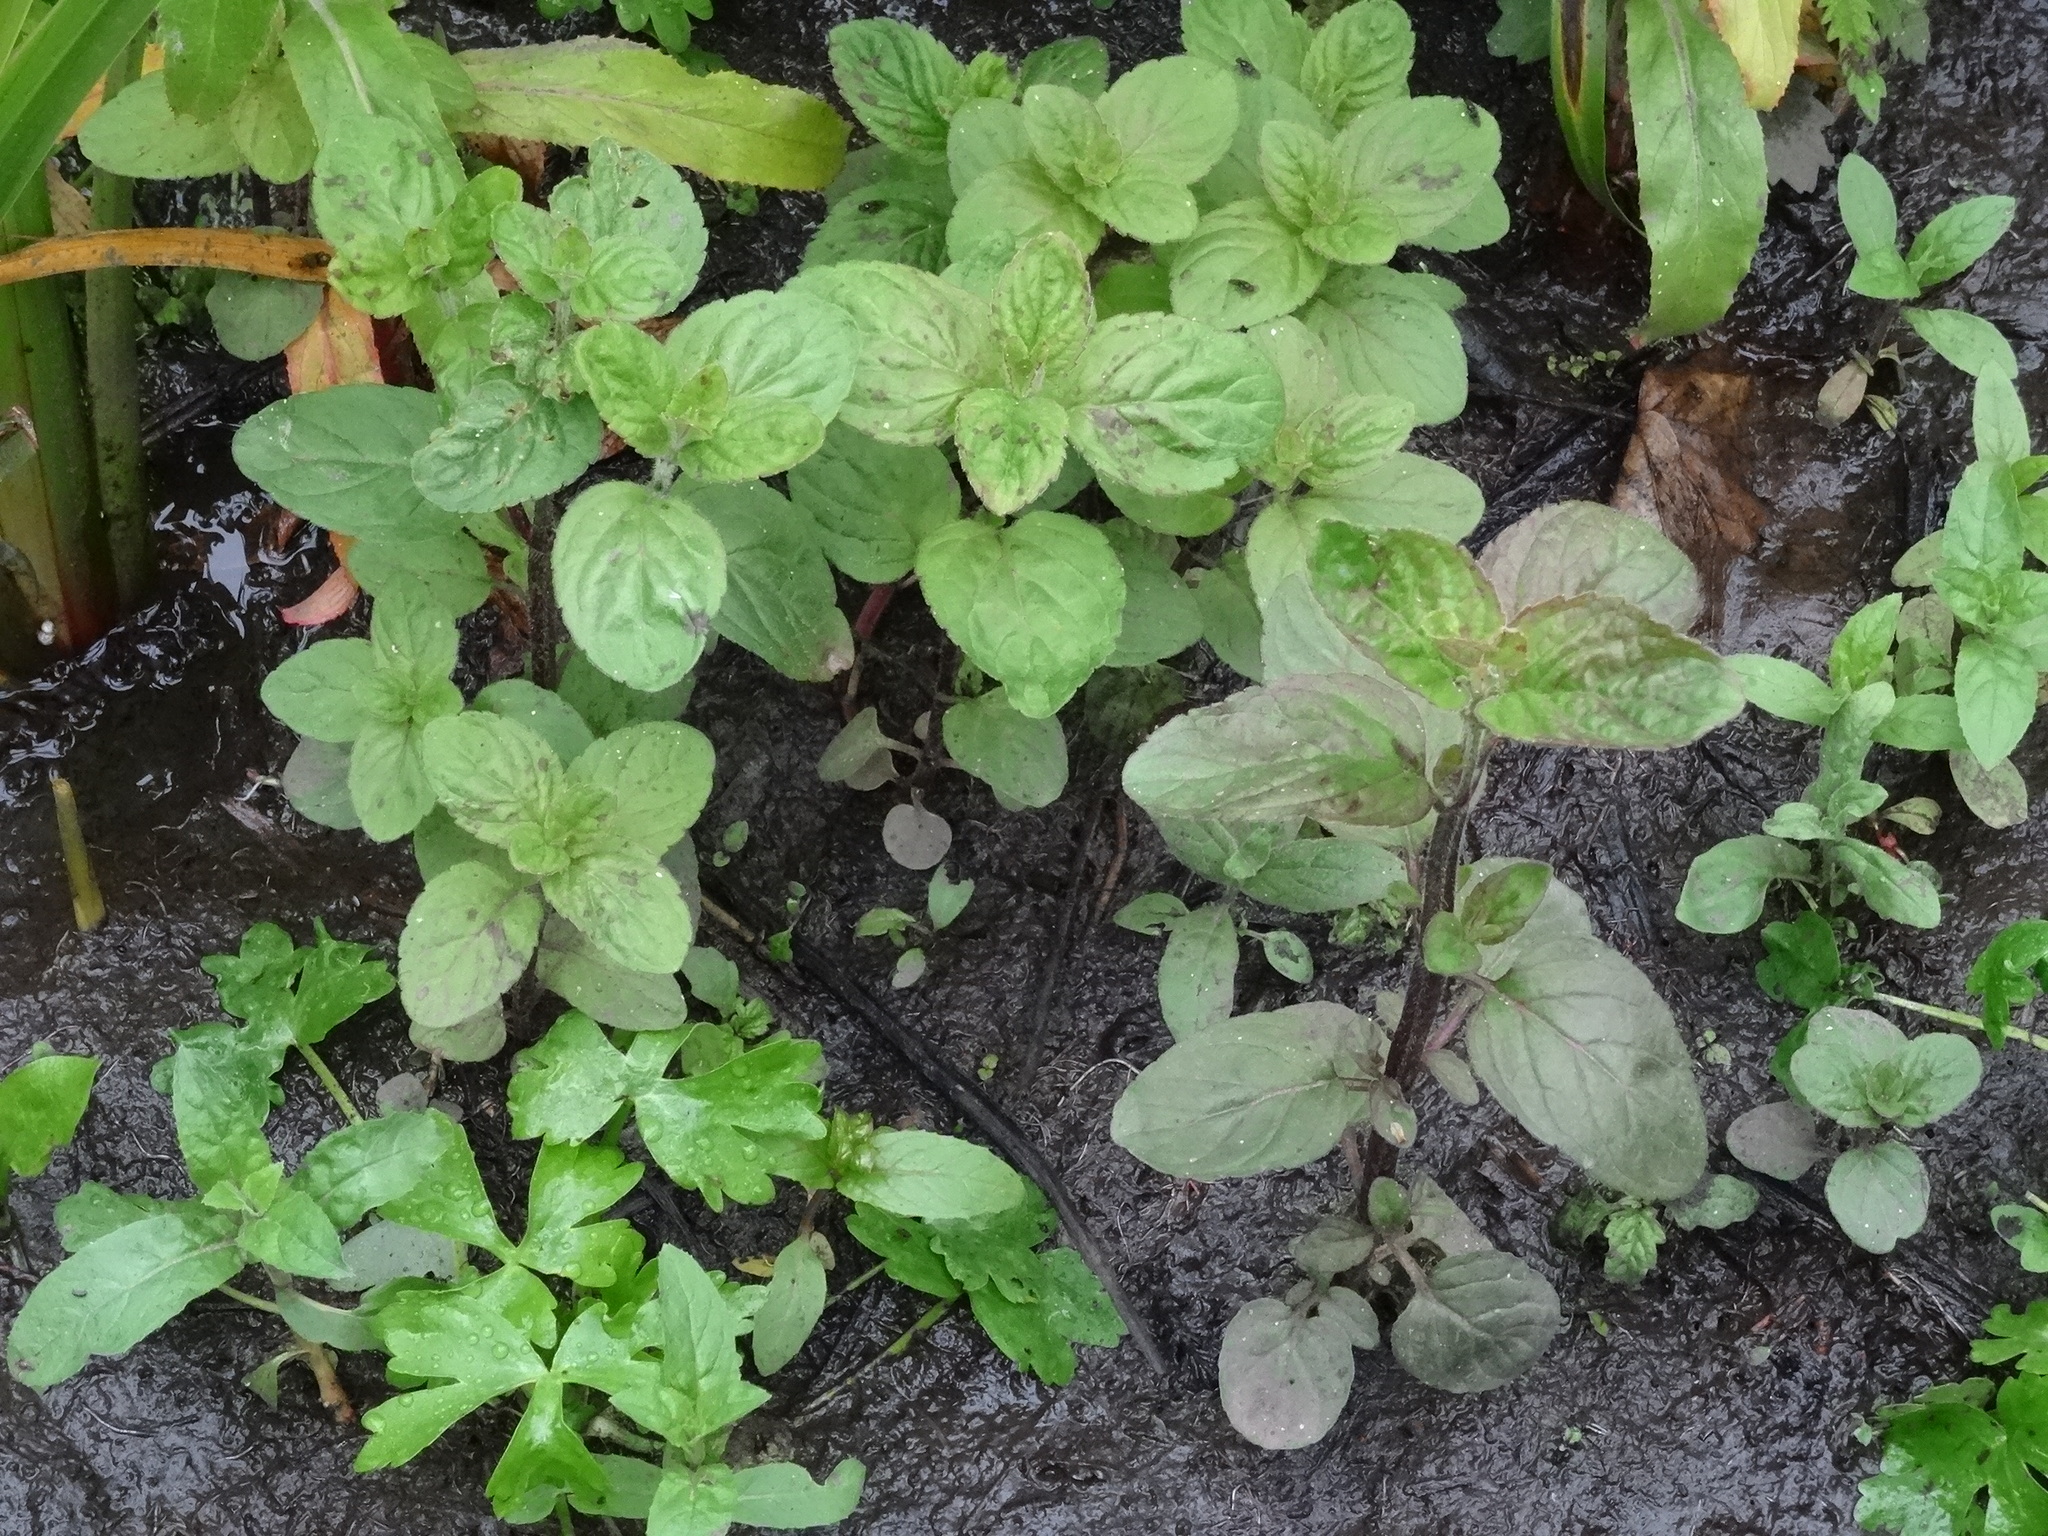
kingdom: Plantae
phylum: Tracheophyta
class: Magnoliopsida
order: Lamiales
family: Lamiaceae
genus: Mentha
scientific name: Mentha aquatica
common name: Water mint
